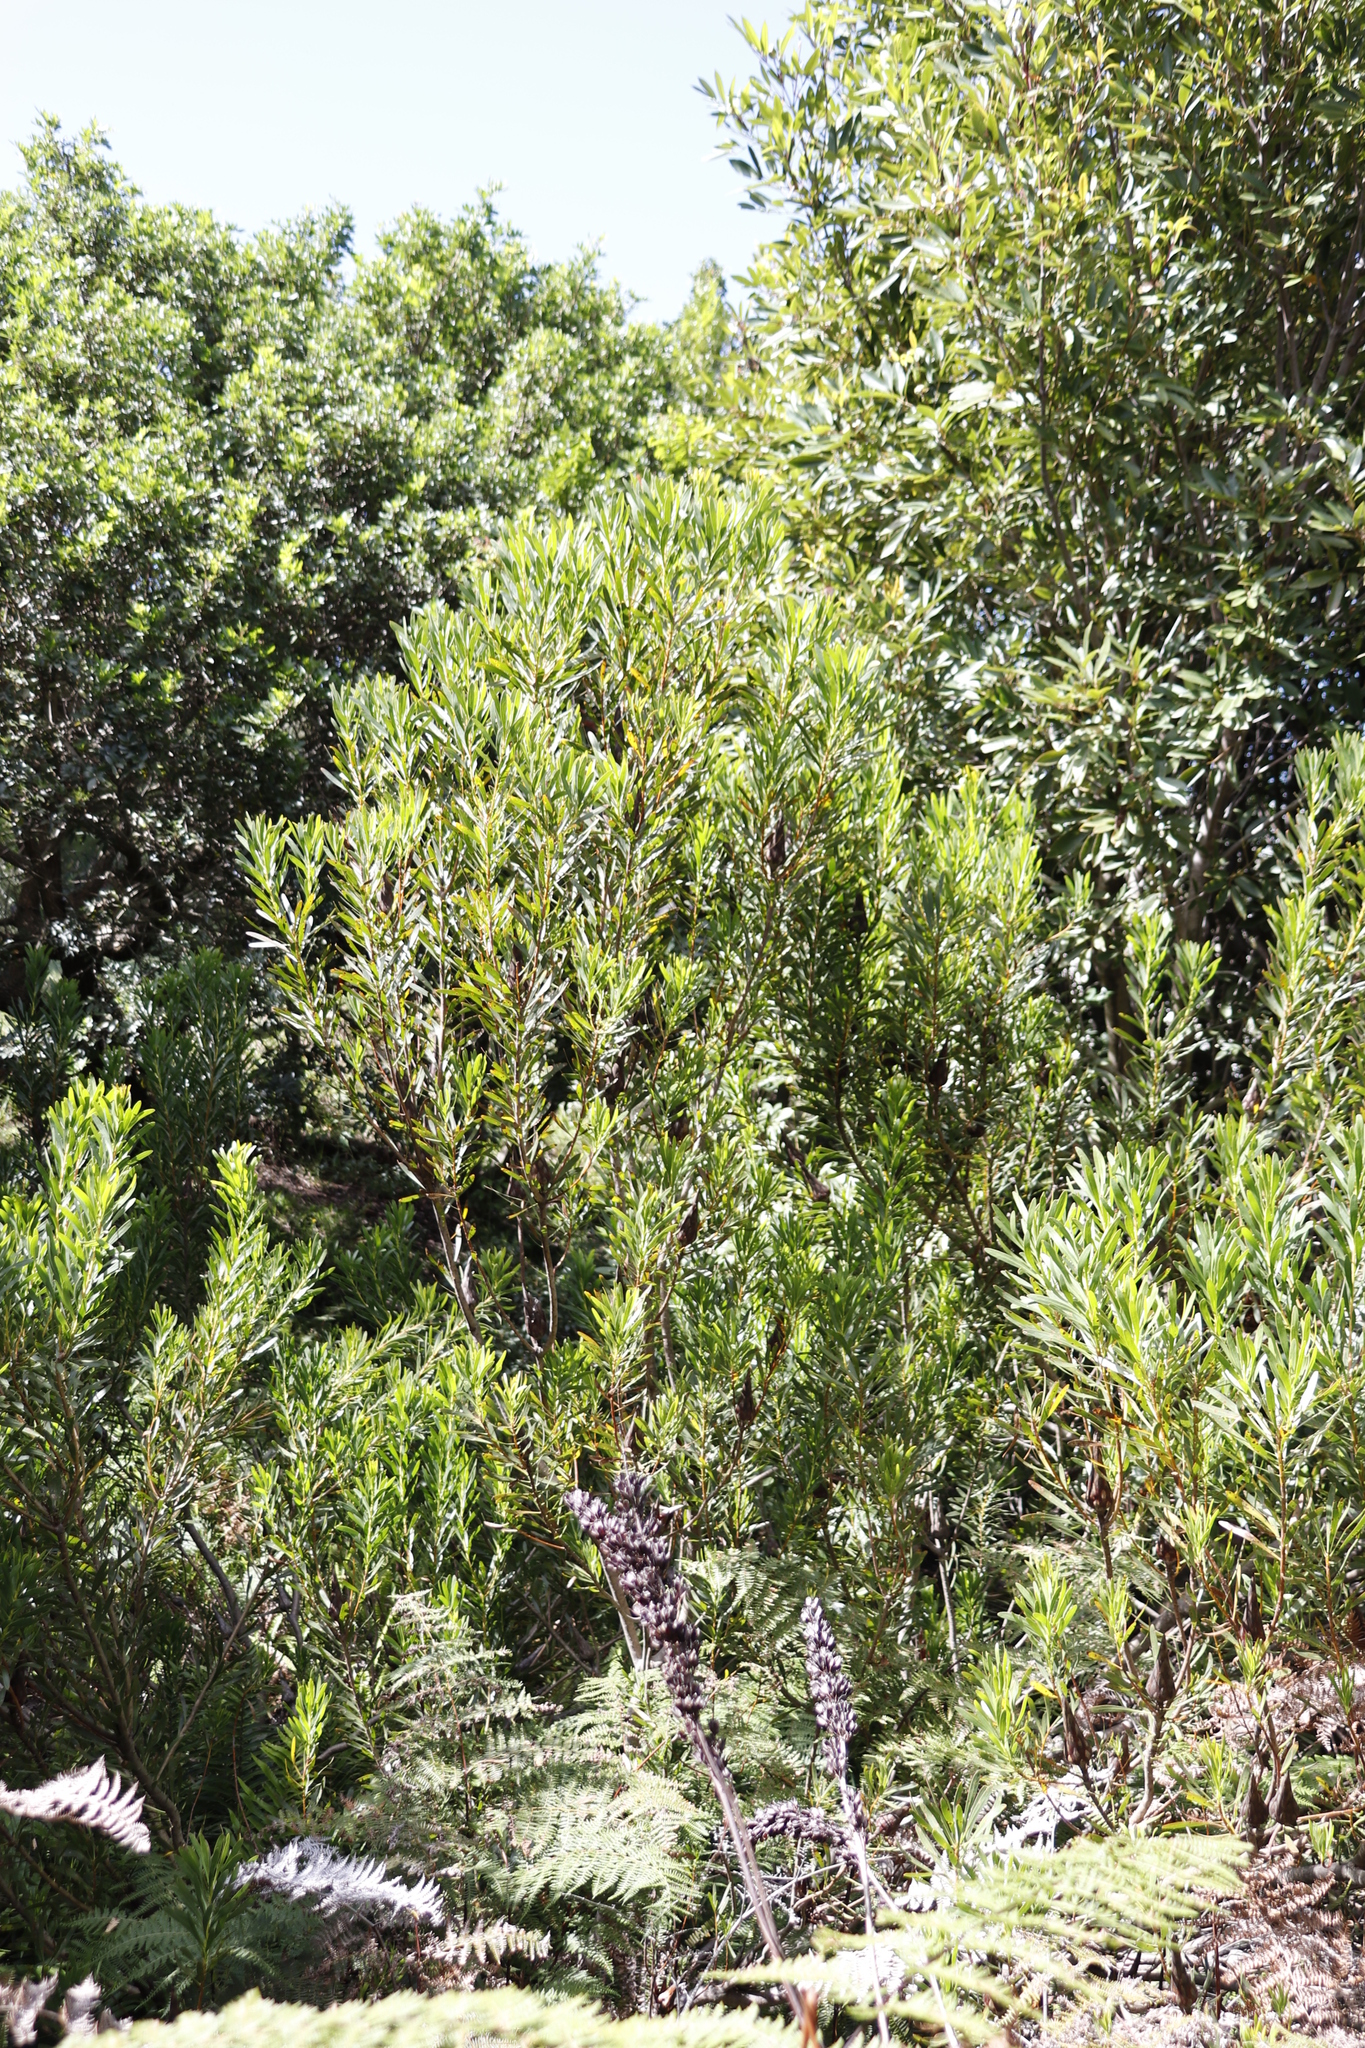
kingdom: Plantae
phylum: Tracheophyta
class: Magnoliopsida
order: Proteales
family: Proteaceae
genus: Protea
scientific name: Protea repens
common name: Sugarbush
